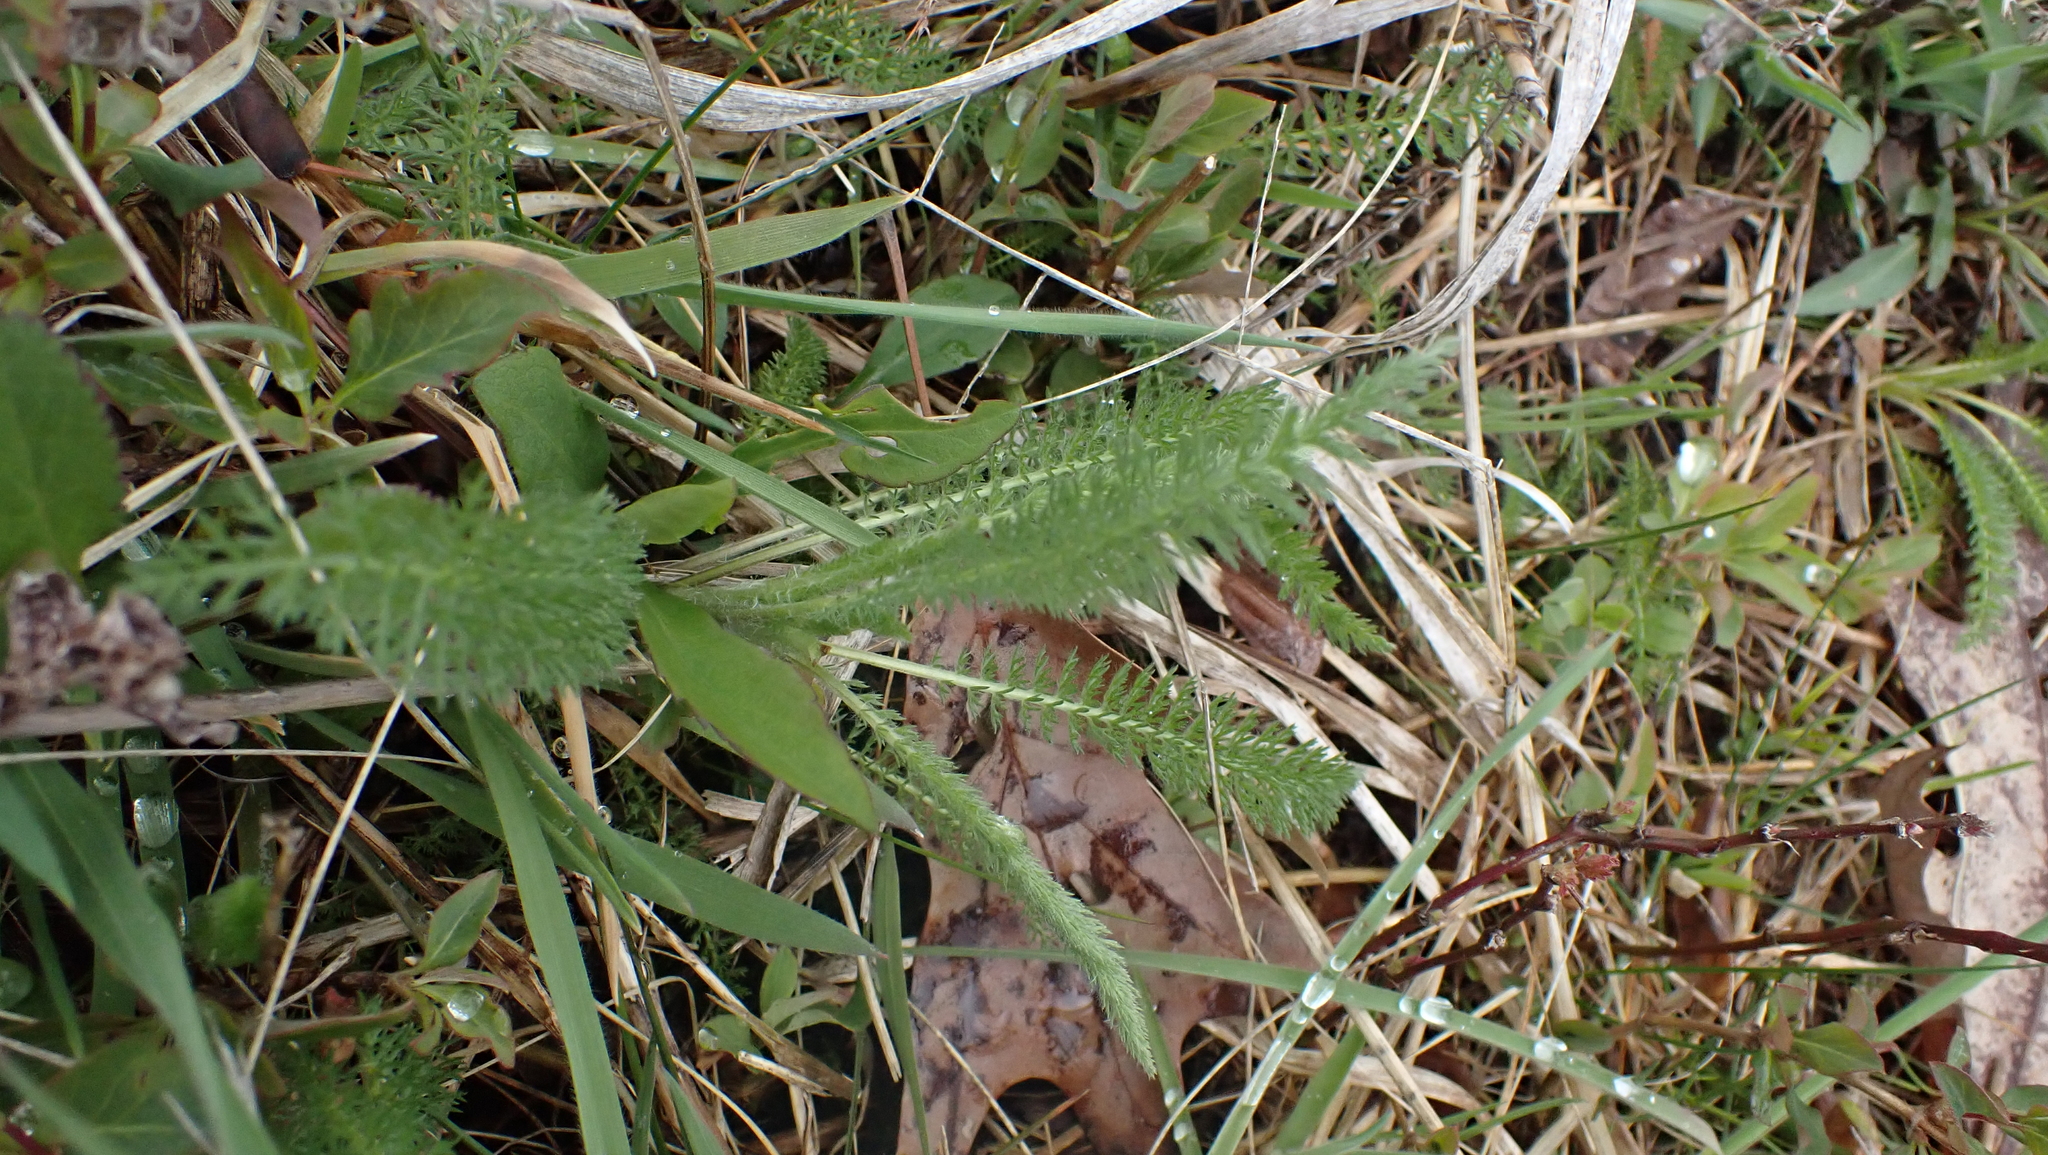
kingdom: Plantae
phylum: Tracheophyta
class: Magnoliopsida
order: Asterales
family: Asteraceae
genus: Achillea
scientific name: Achillea millefolium
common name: Yarrow
